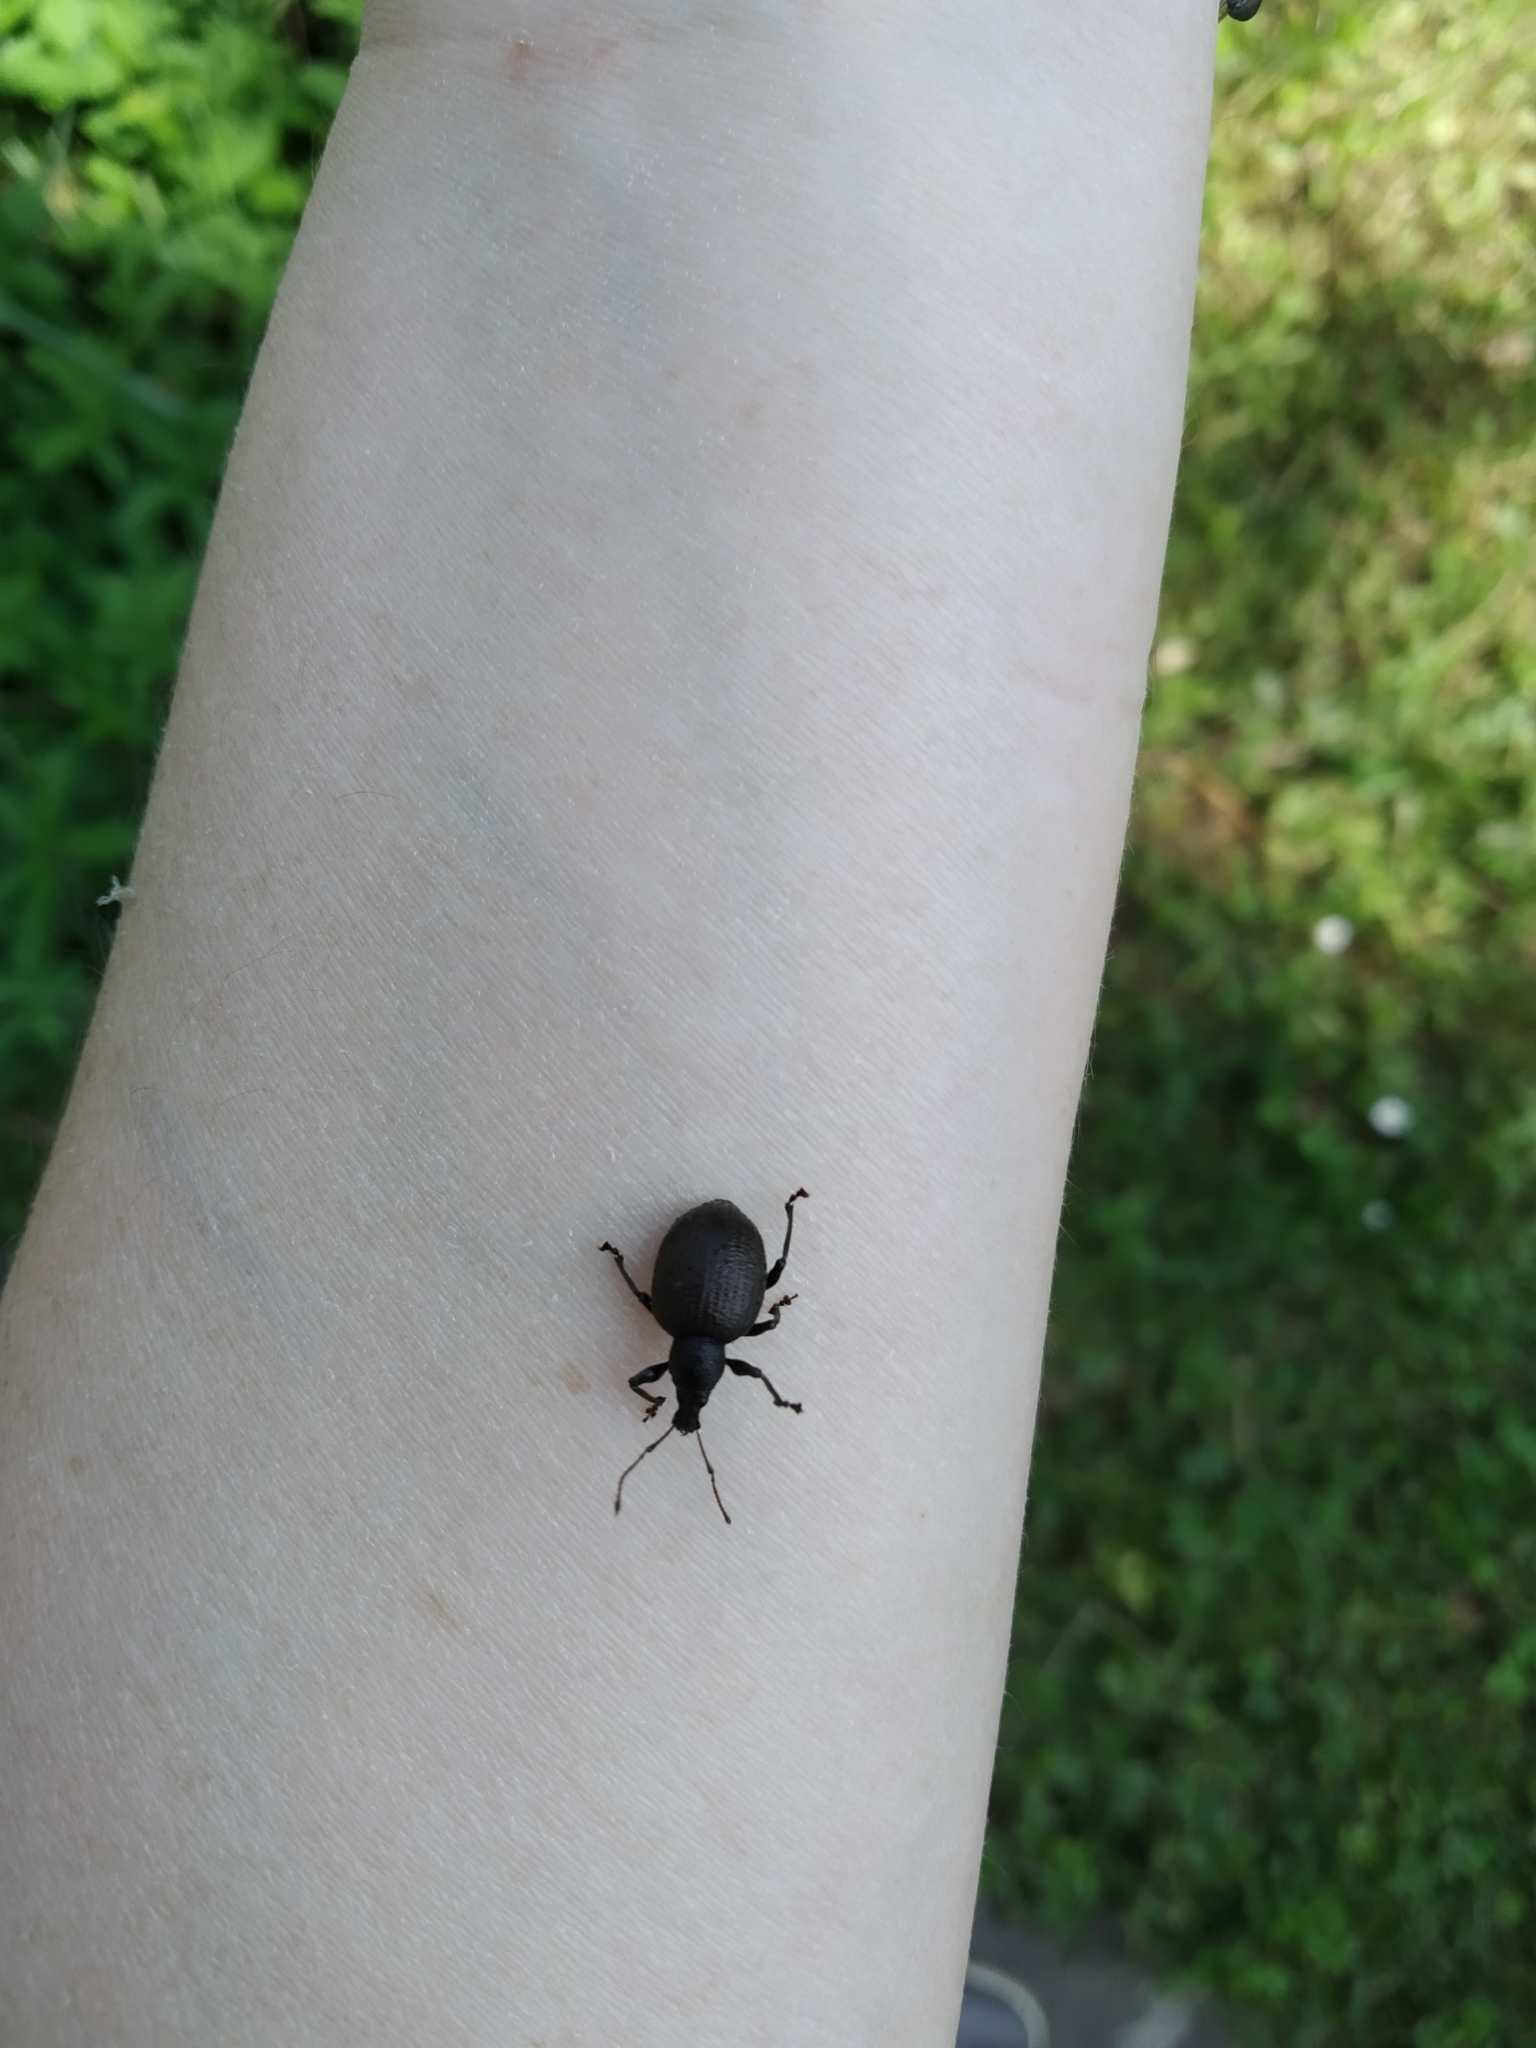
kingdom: Animalia
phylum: Arthropoda
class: Insecta
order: Coleoptera
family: Curculionidae
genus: Otiorhynchus
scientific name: Otiorhynchus armadillo
